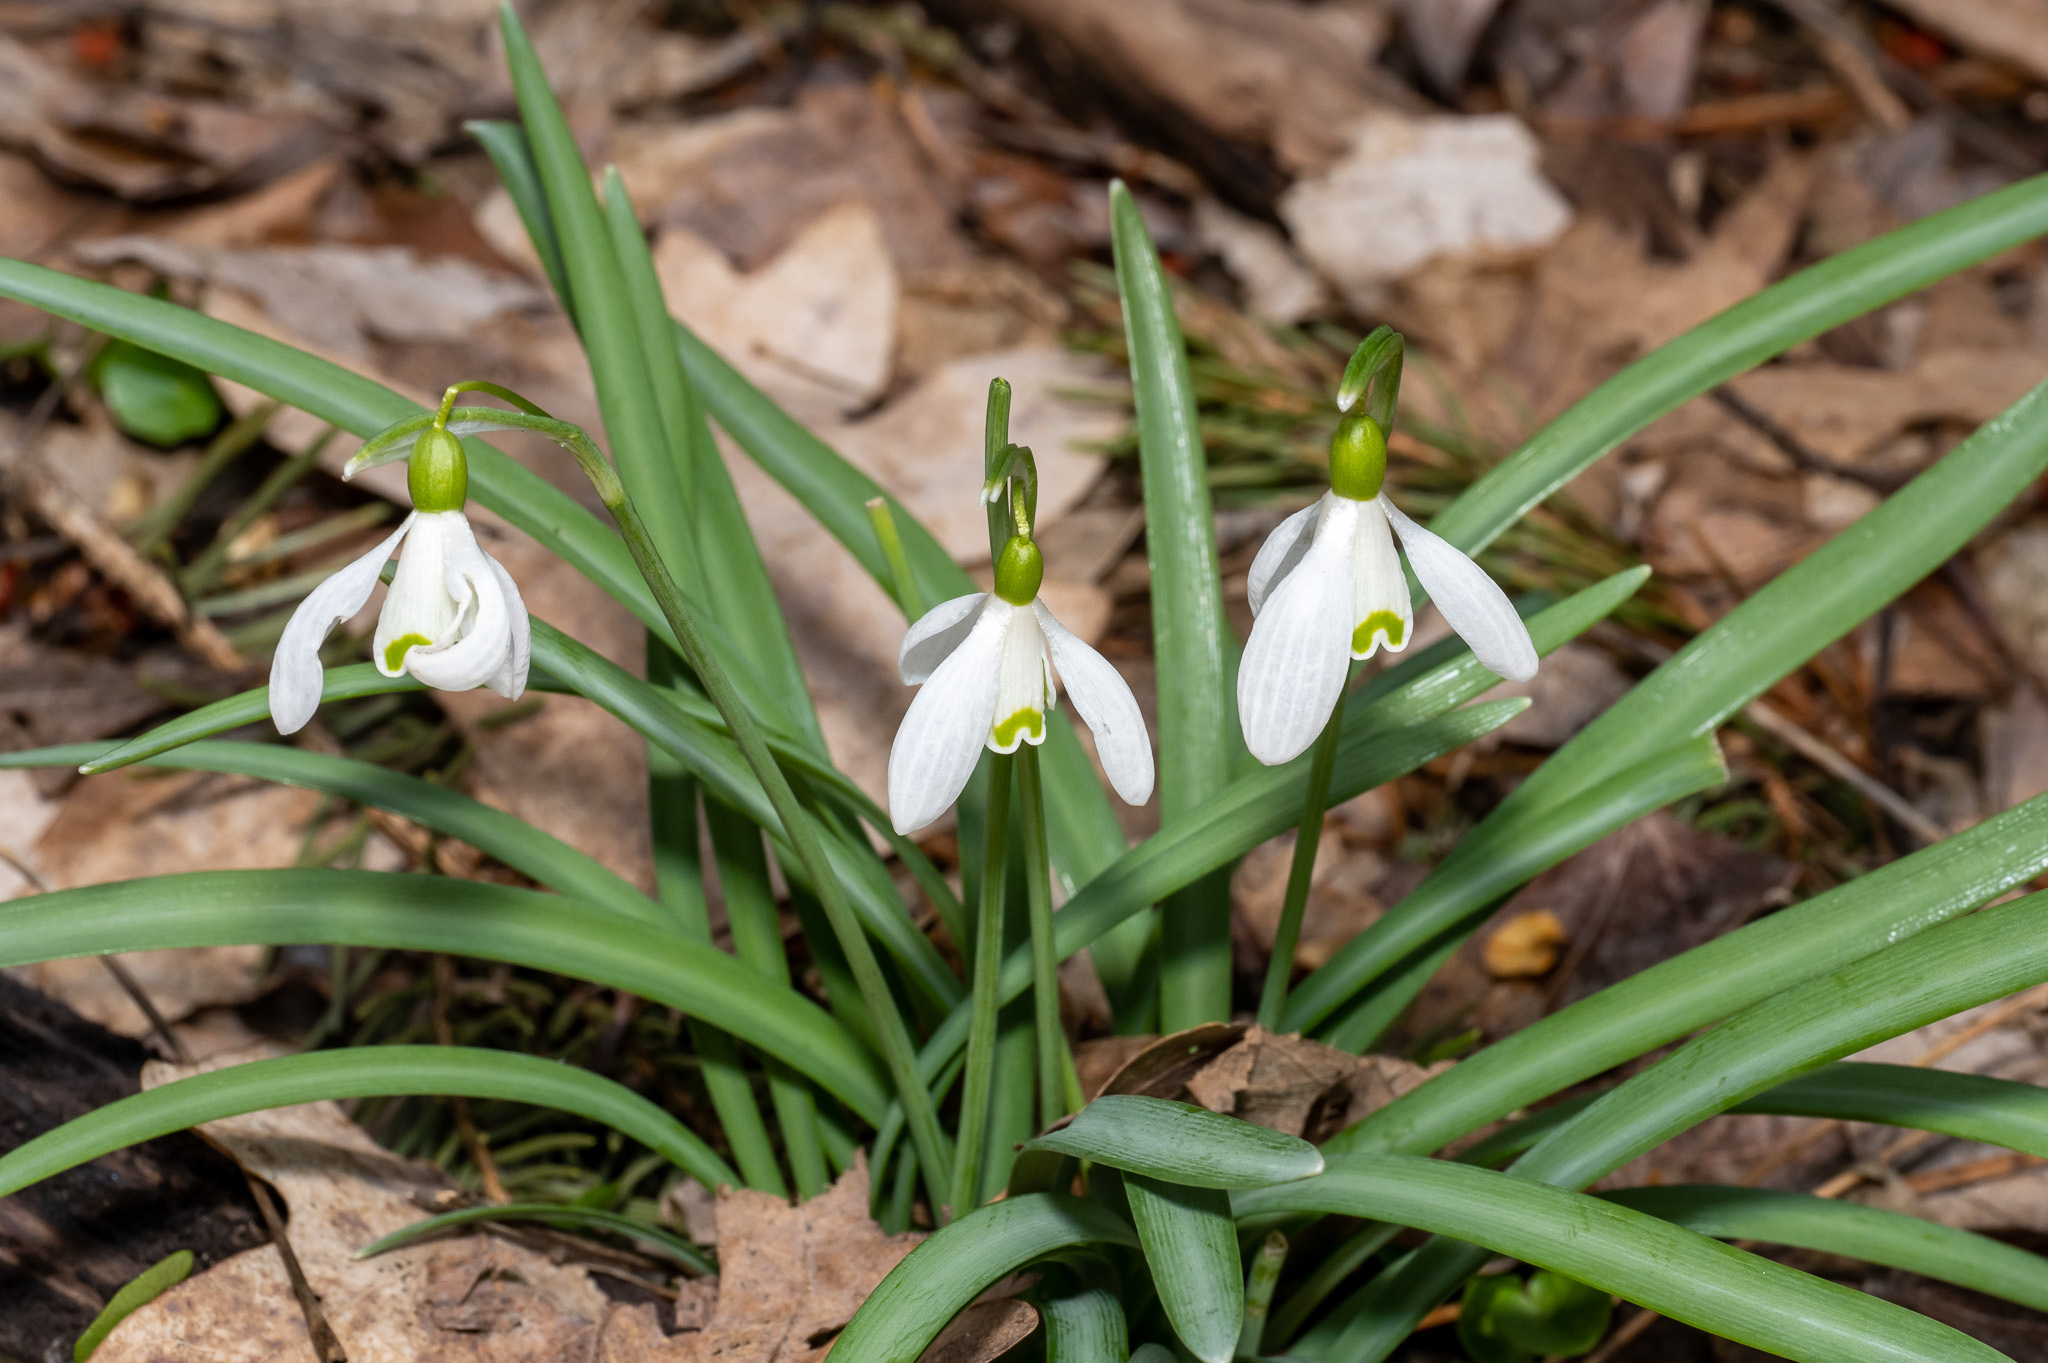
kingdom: Plantae
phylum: Tracheophyta
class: Liliopsida
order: Asparagales
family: Amaryllidaceae
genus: Galanthus
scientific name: Galanthus nivalis
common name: Snowdrop
